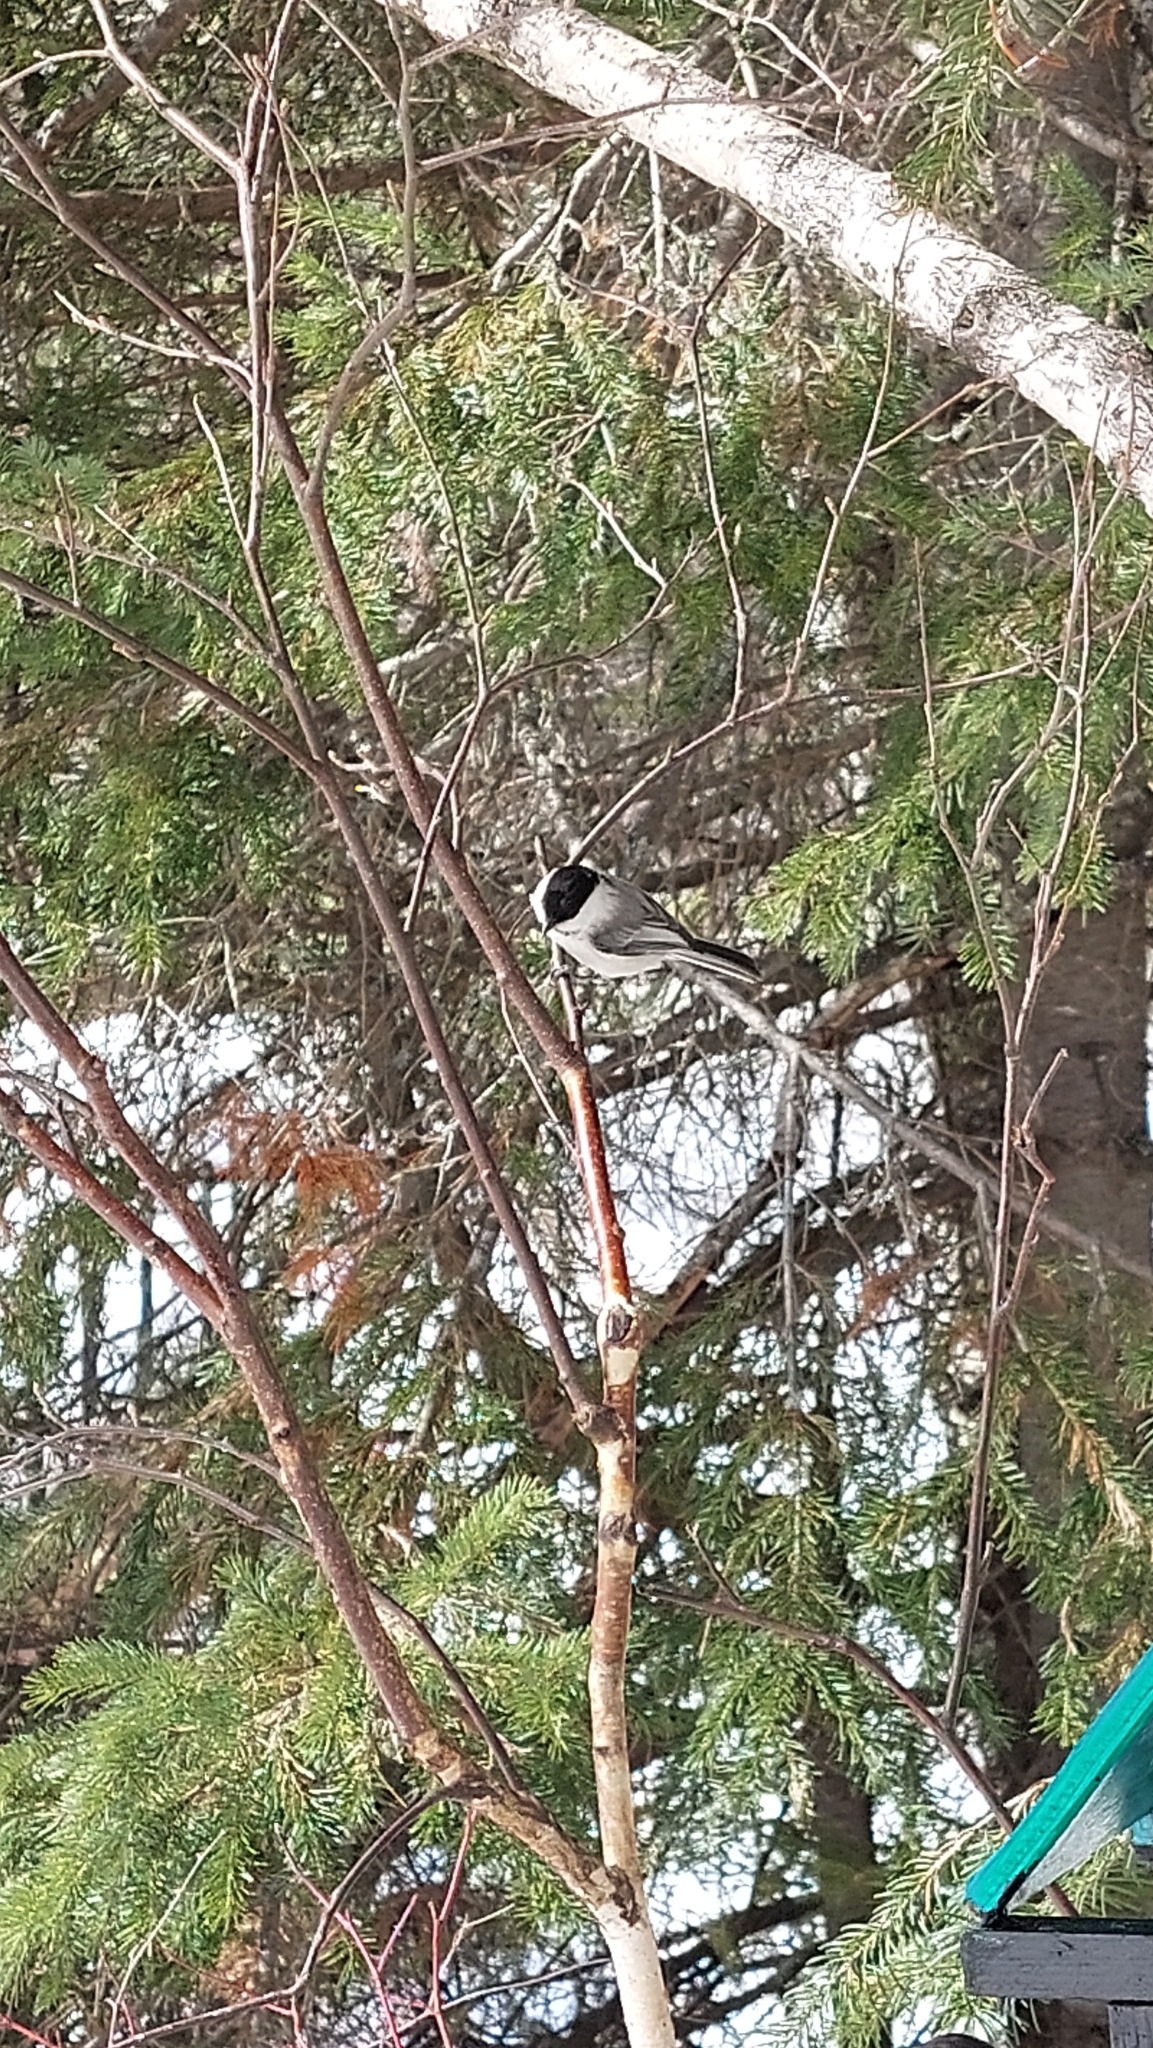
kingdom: Animalia
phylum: Chordata
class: Aves
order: Passeriformes
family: Paridae
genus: Poecile
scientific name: Poecile montanus
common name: Willow tit
